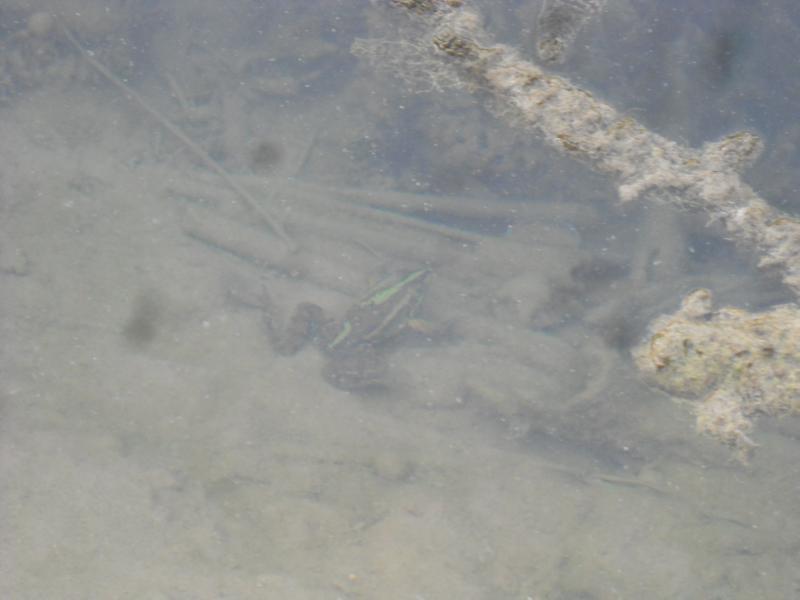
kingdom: Animalia
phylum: Chordata
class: Amphibia
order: Anura
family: Ranidae
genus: Pelophylax
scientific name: Pelophylax ridibundus
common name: Marsh frog
